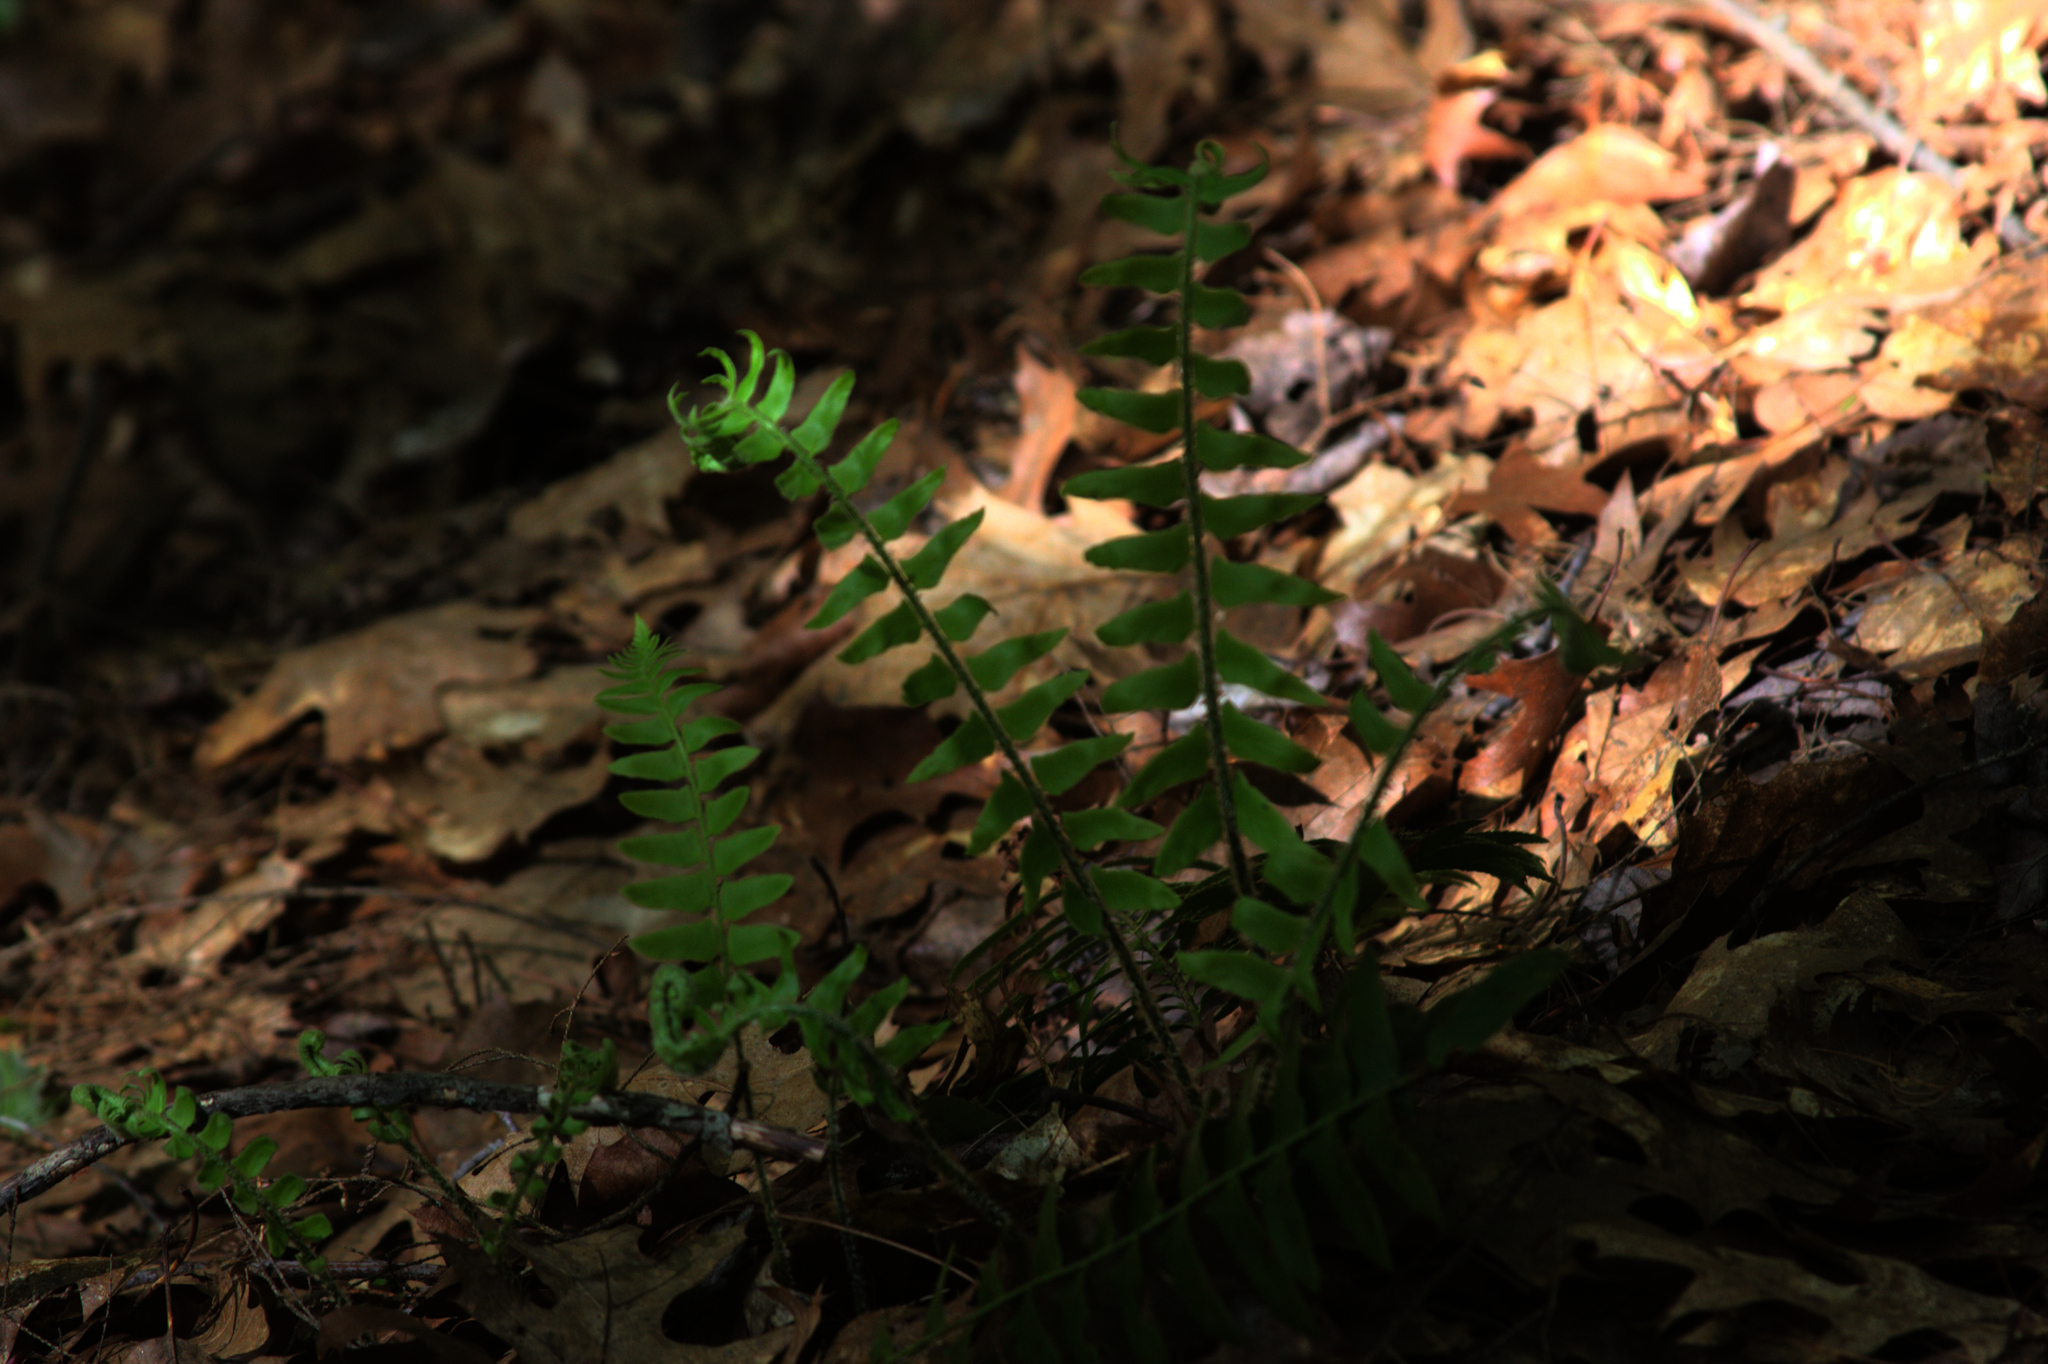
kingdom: Plantae
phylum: Tracheophyta
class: Polypodiopsida
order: Polypodiales
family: Dryopteridaceae
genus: Polystichum
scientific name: Polystichum acrostichoides
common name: Christmas fern
